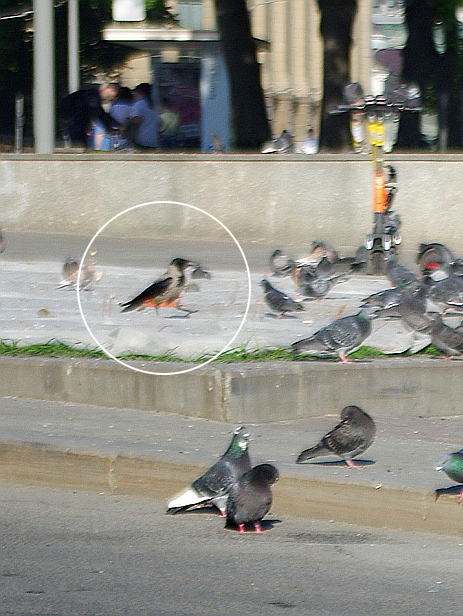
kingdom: Animalia
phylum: Chordata
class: Aves
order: Passeriformes
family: Corvidae
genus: Corvus
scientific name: Corvus cornix
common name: Hooded crow
